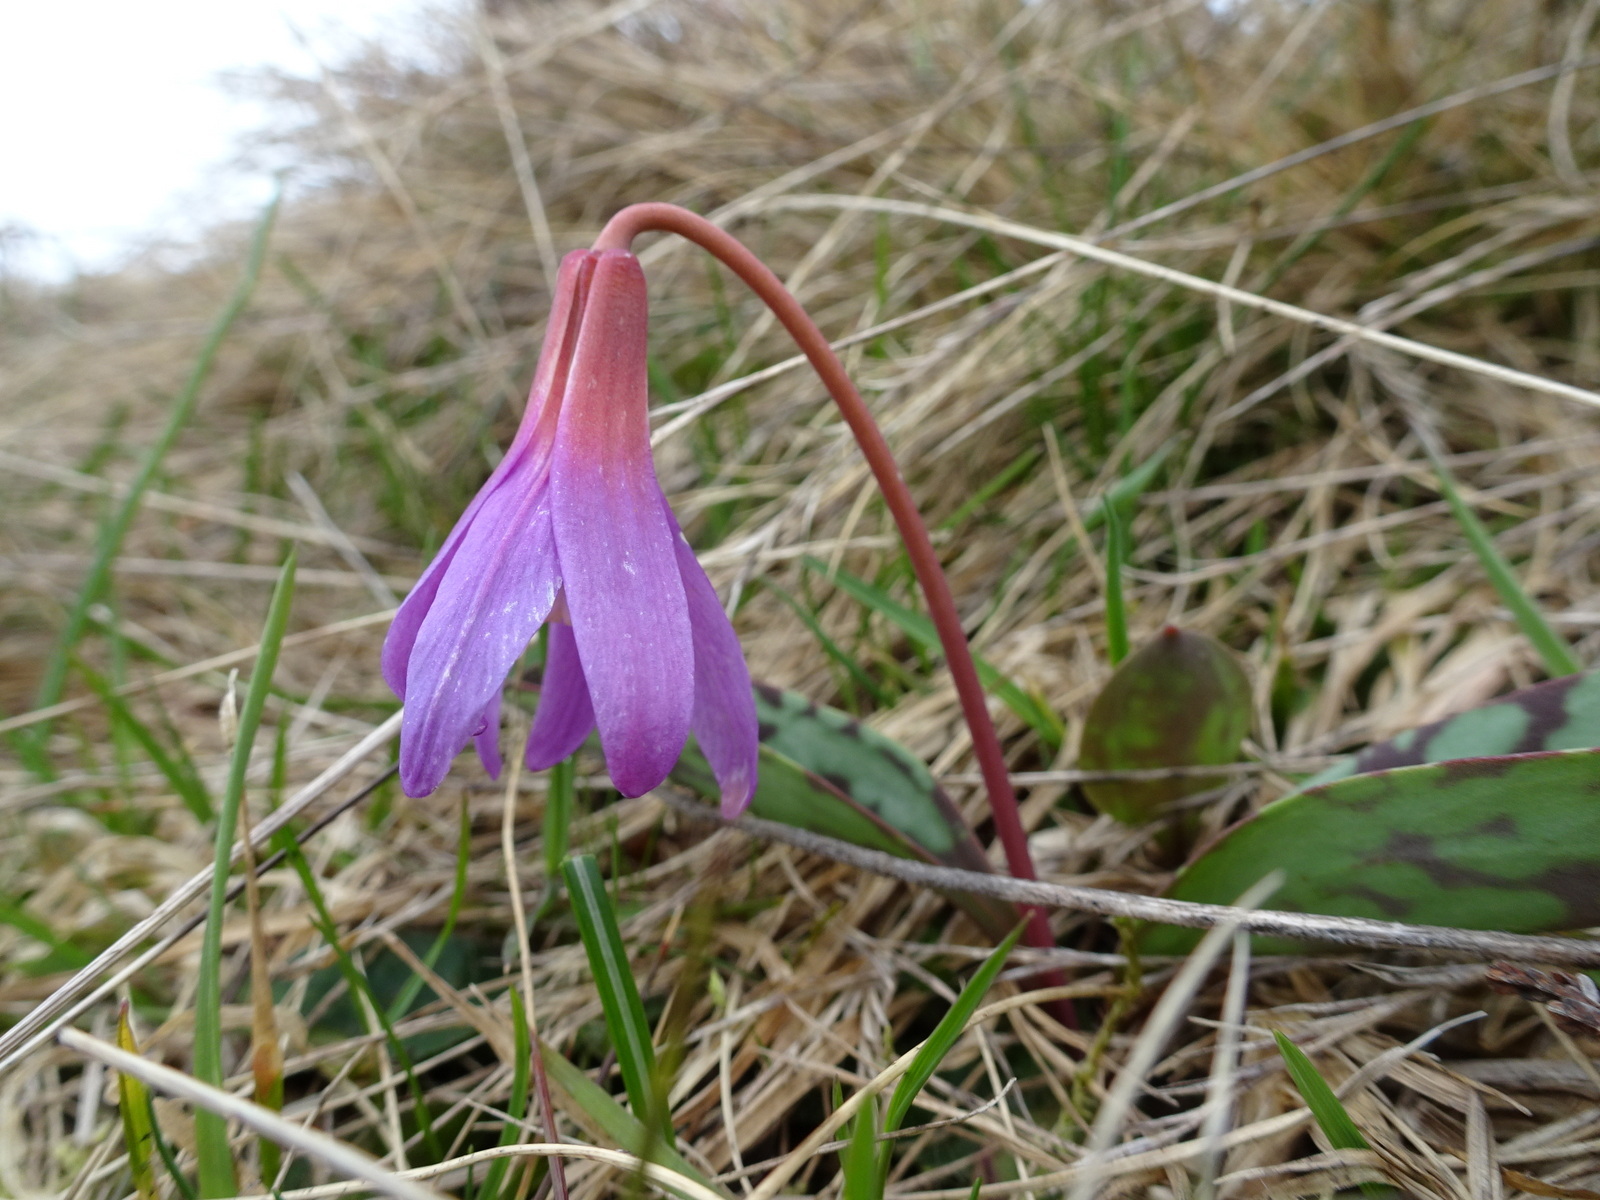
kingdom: Plantae
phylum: Tracheophyta
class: Liliopsida
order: Liliales
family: Liliaceae
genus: Erythronium
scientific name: Erythronium dens-canis
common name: Dog's-tooth-violet
